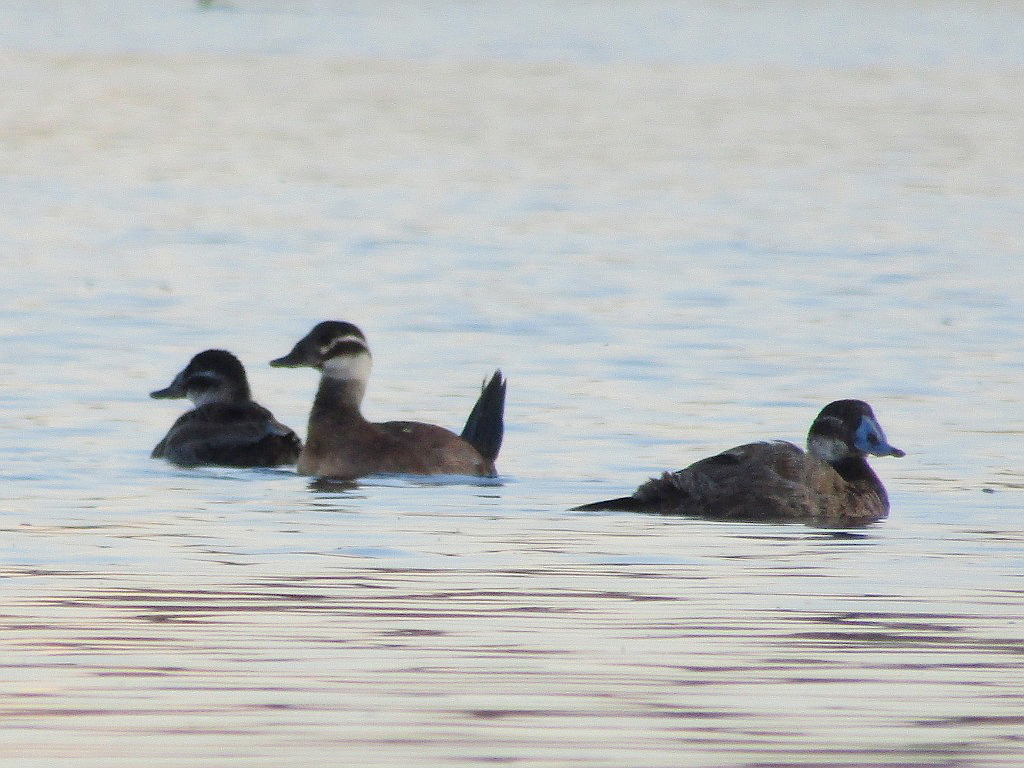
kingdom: Animalia
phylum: Chordata
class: Aves
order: Anseriformes
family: Anatidae
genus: Oxyura
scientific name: Oxyura leucocephala
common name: White-headed duck
